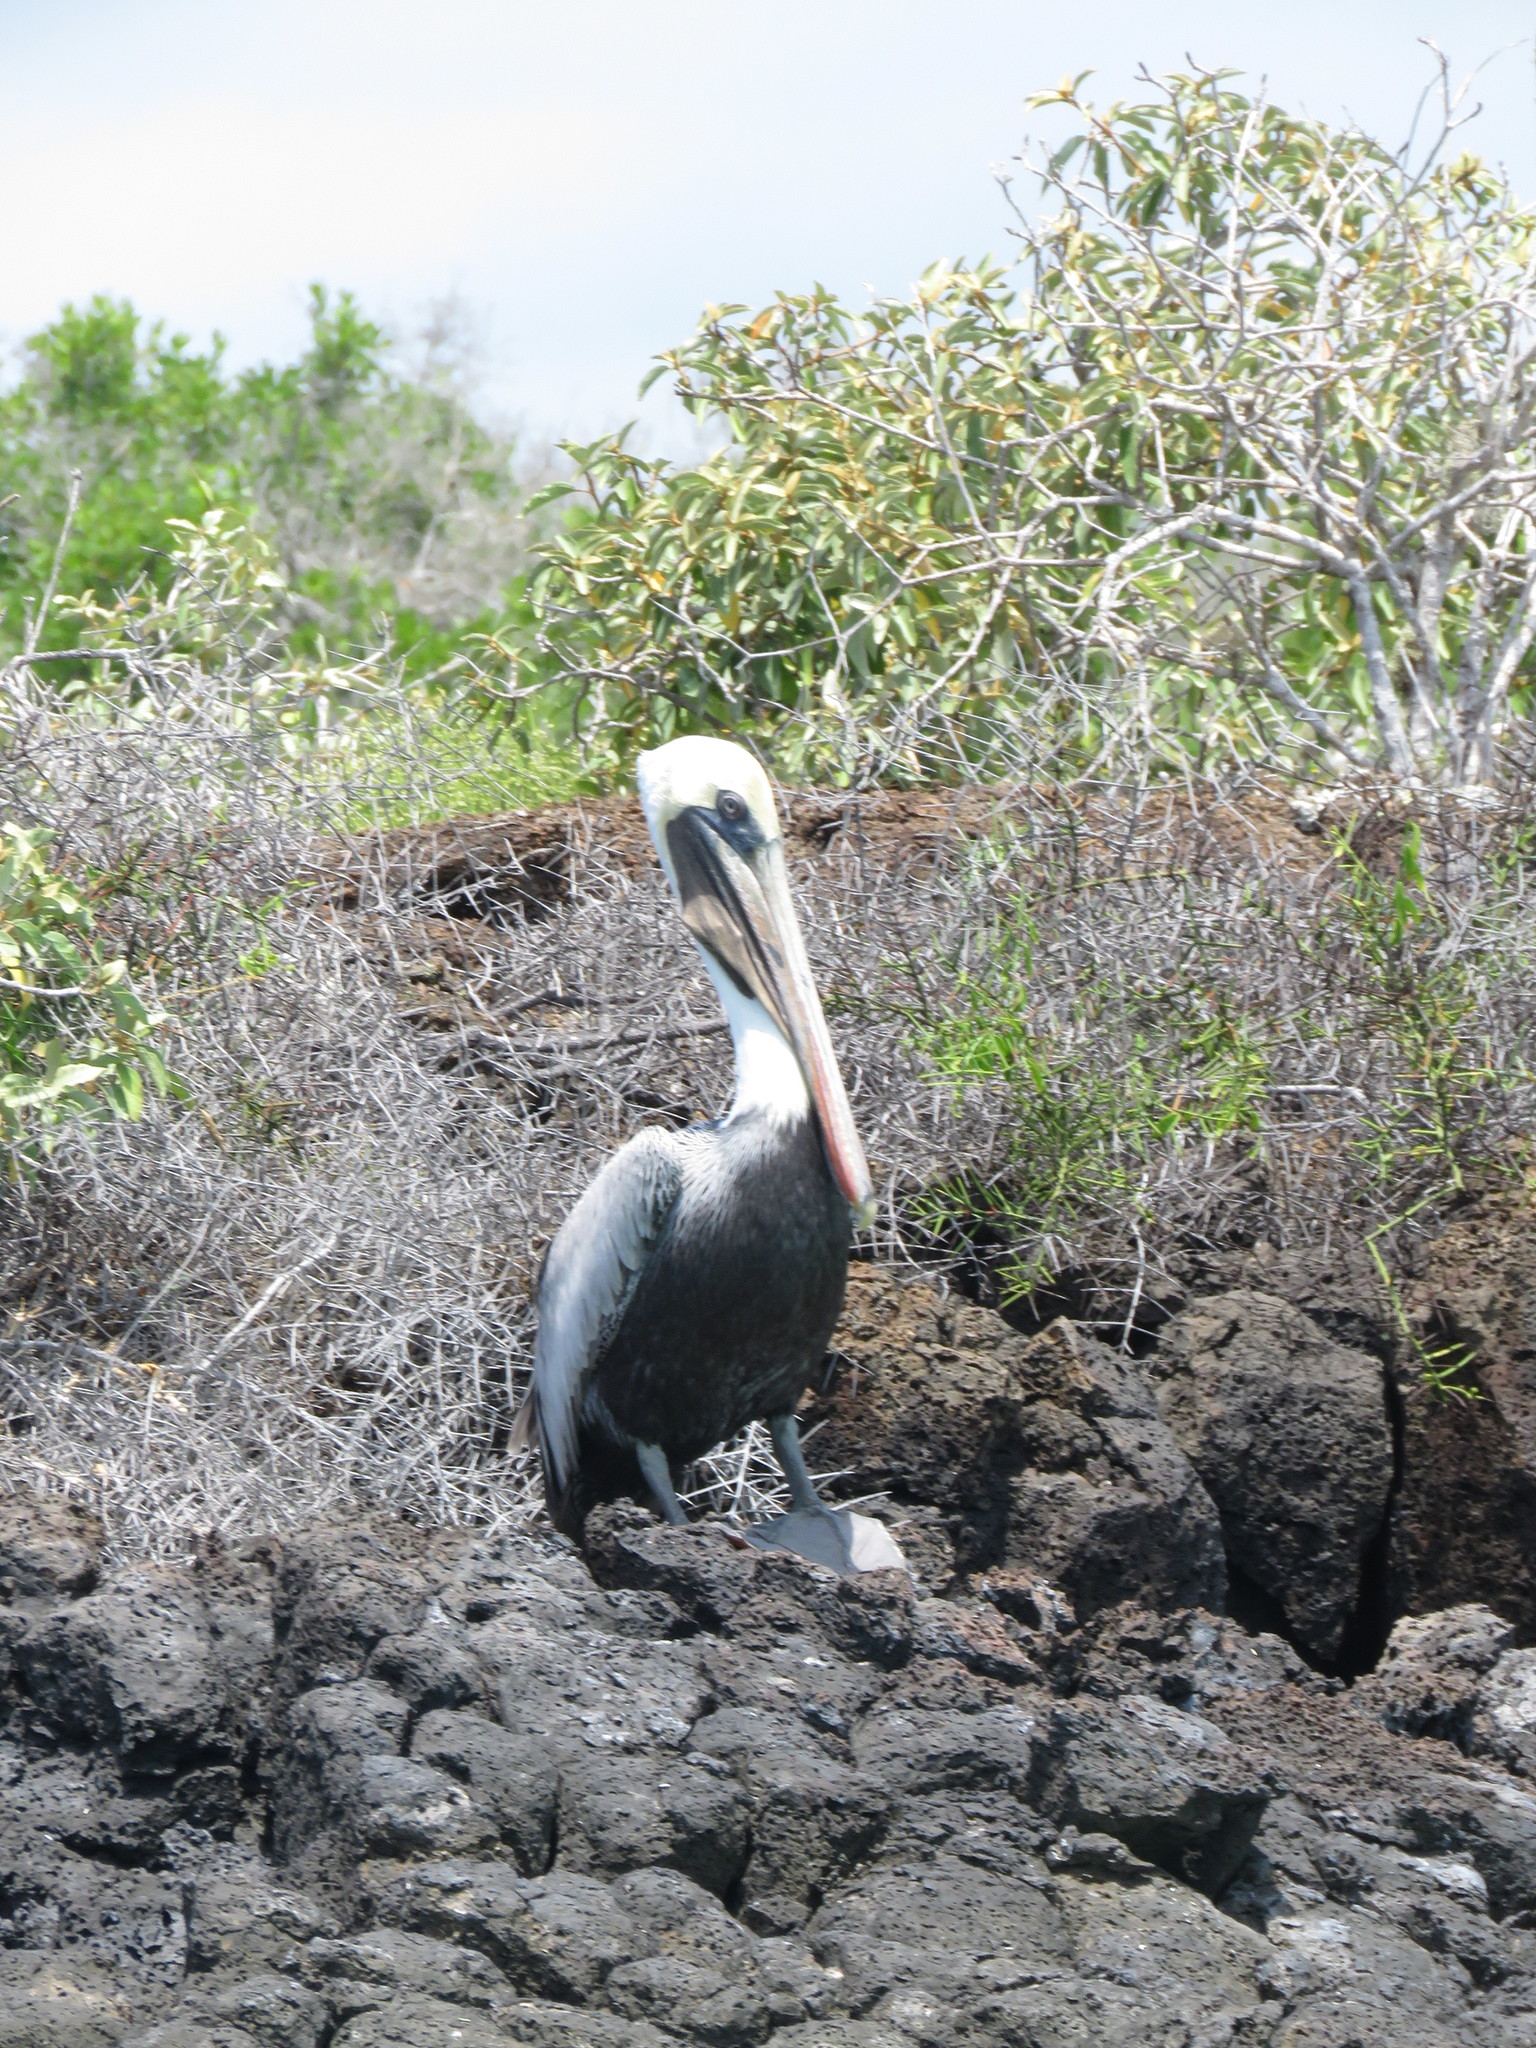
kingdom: Animalia
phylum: Chordata
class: Aves
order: Pelecaniformes
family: Pelecanidae
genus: Pelecanus
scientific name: Pelecanus occidentalis
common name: Brown pelican
